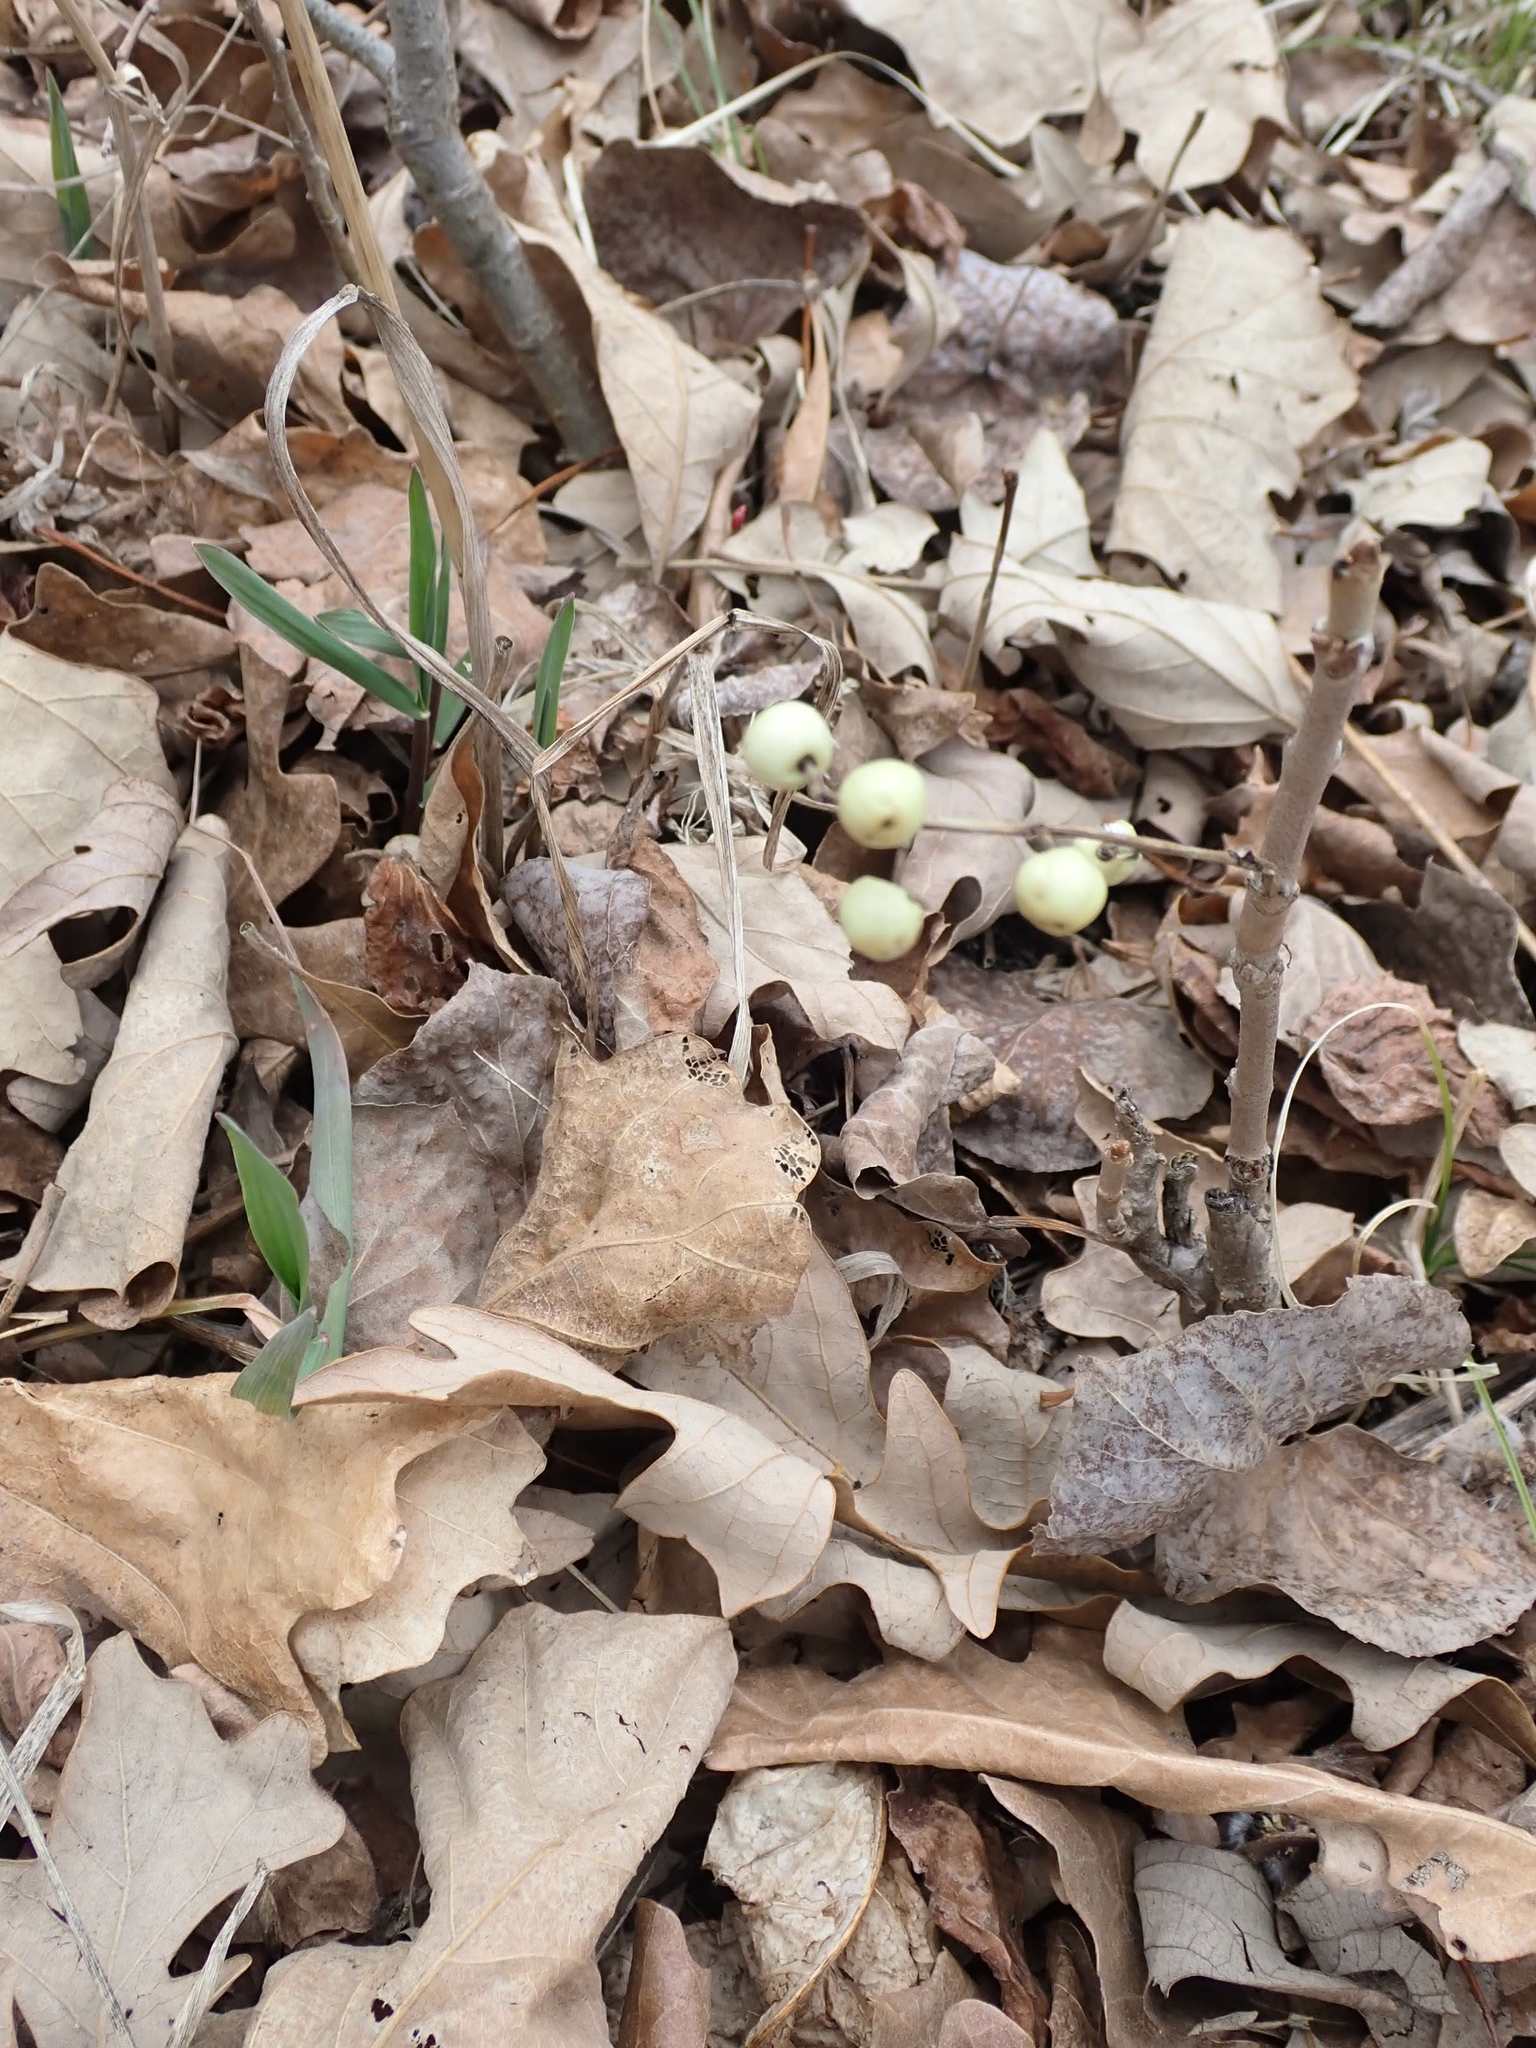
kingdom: Plantae
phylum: Tracheophyta
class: Magnoliopsida
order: Sapindales
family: Anacardiaceae
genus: Toxicodendron
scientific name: Toxicodendron rydbergii
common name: Rydberg's poison-ivy
